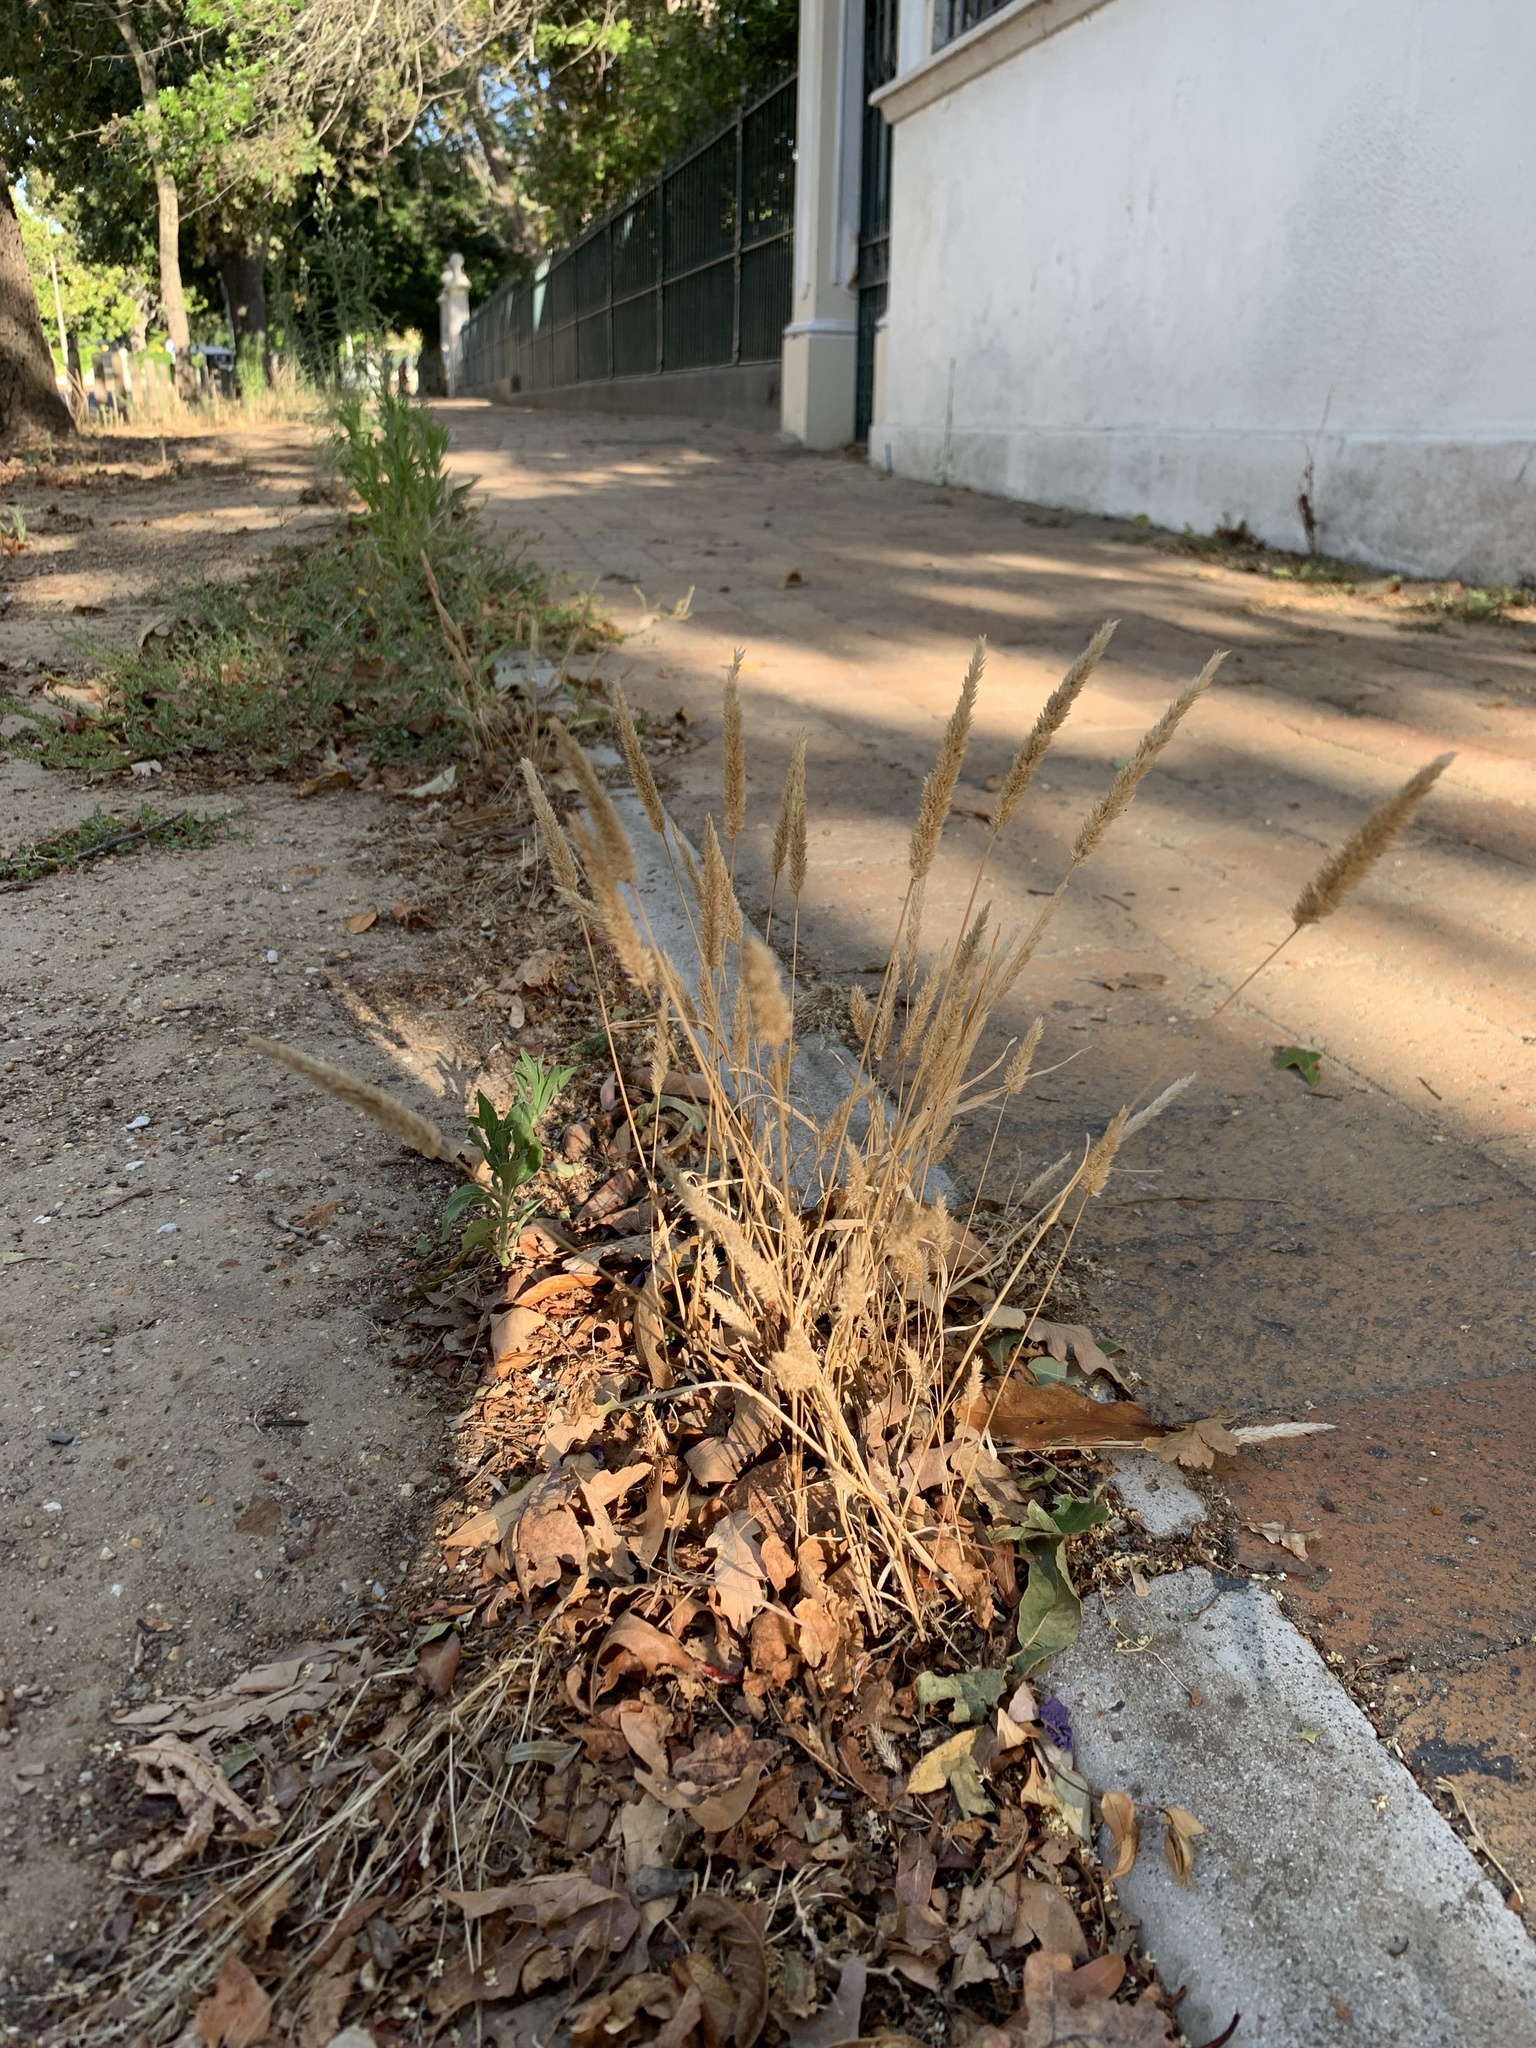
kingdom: Plantae
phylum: Tracheophyta
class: Liliopsida
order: Poales
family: Poaceae
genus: Polypogon
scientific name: Polypogon monspeliensis
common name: Annual rabbitsfoot grass
